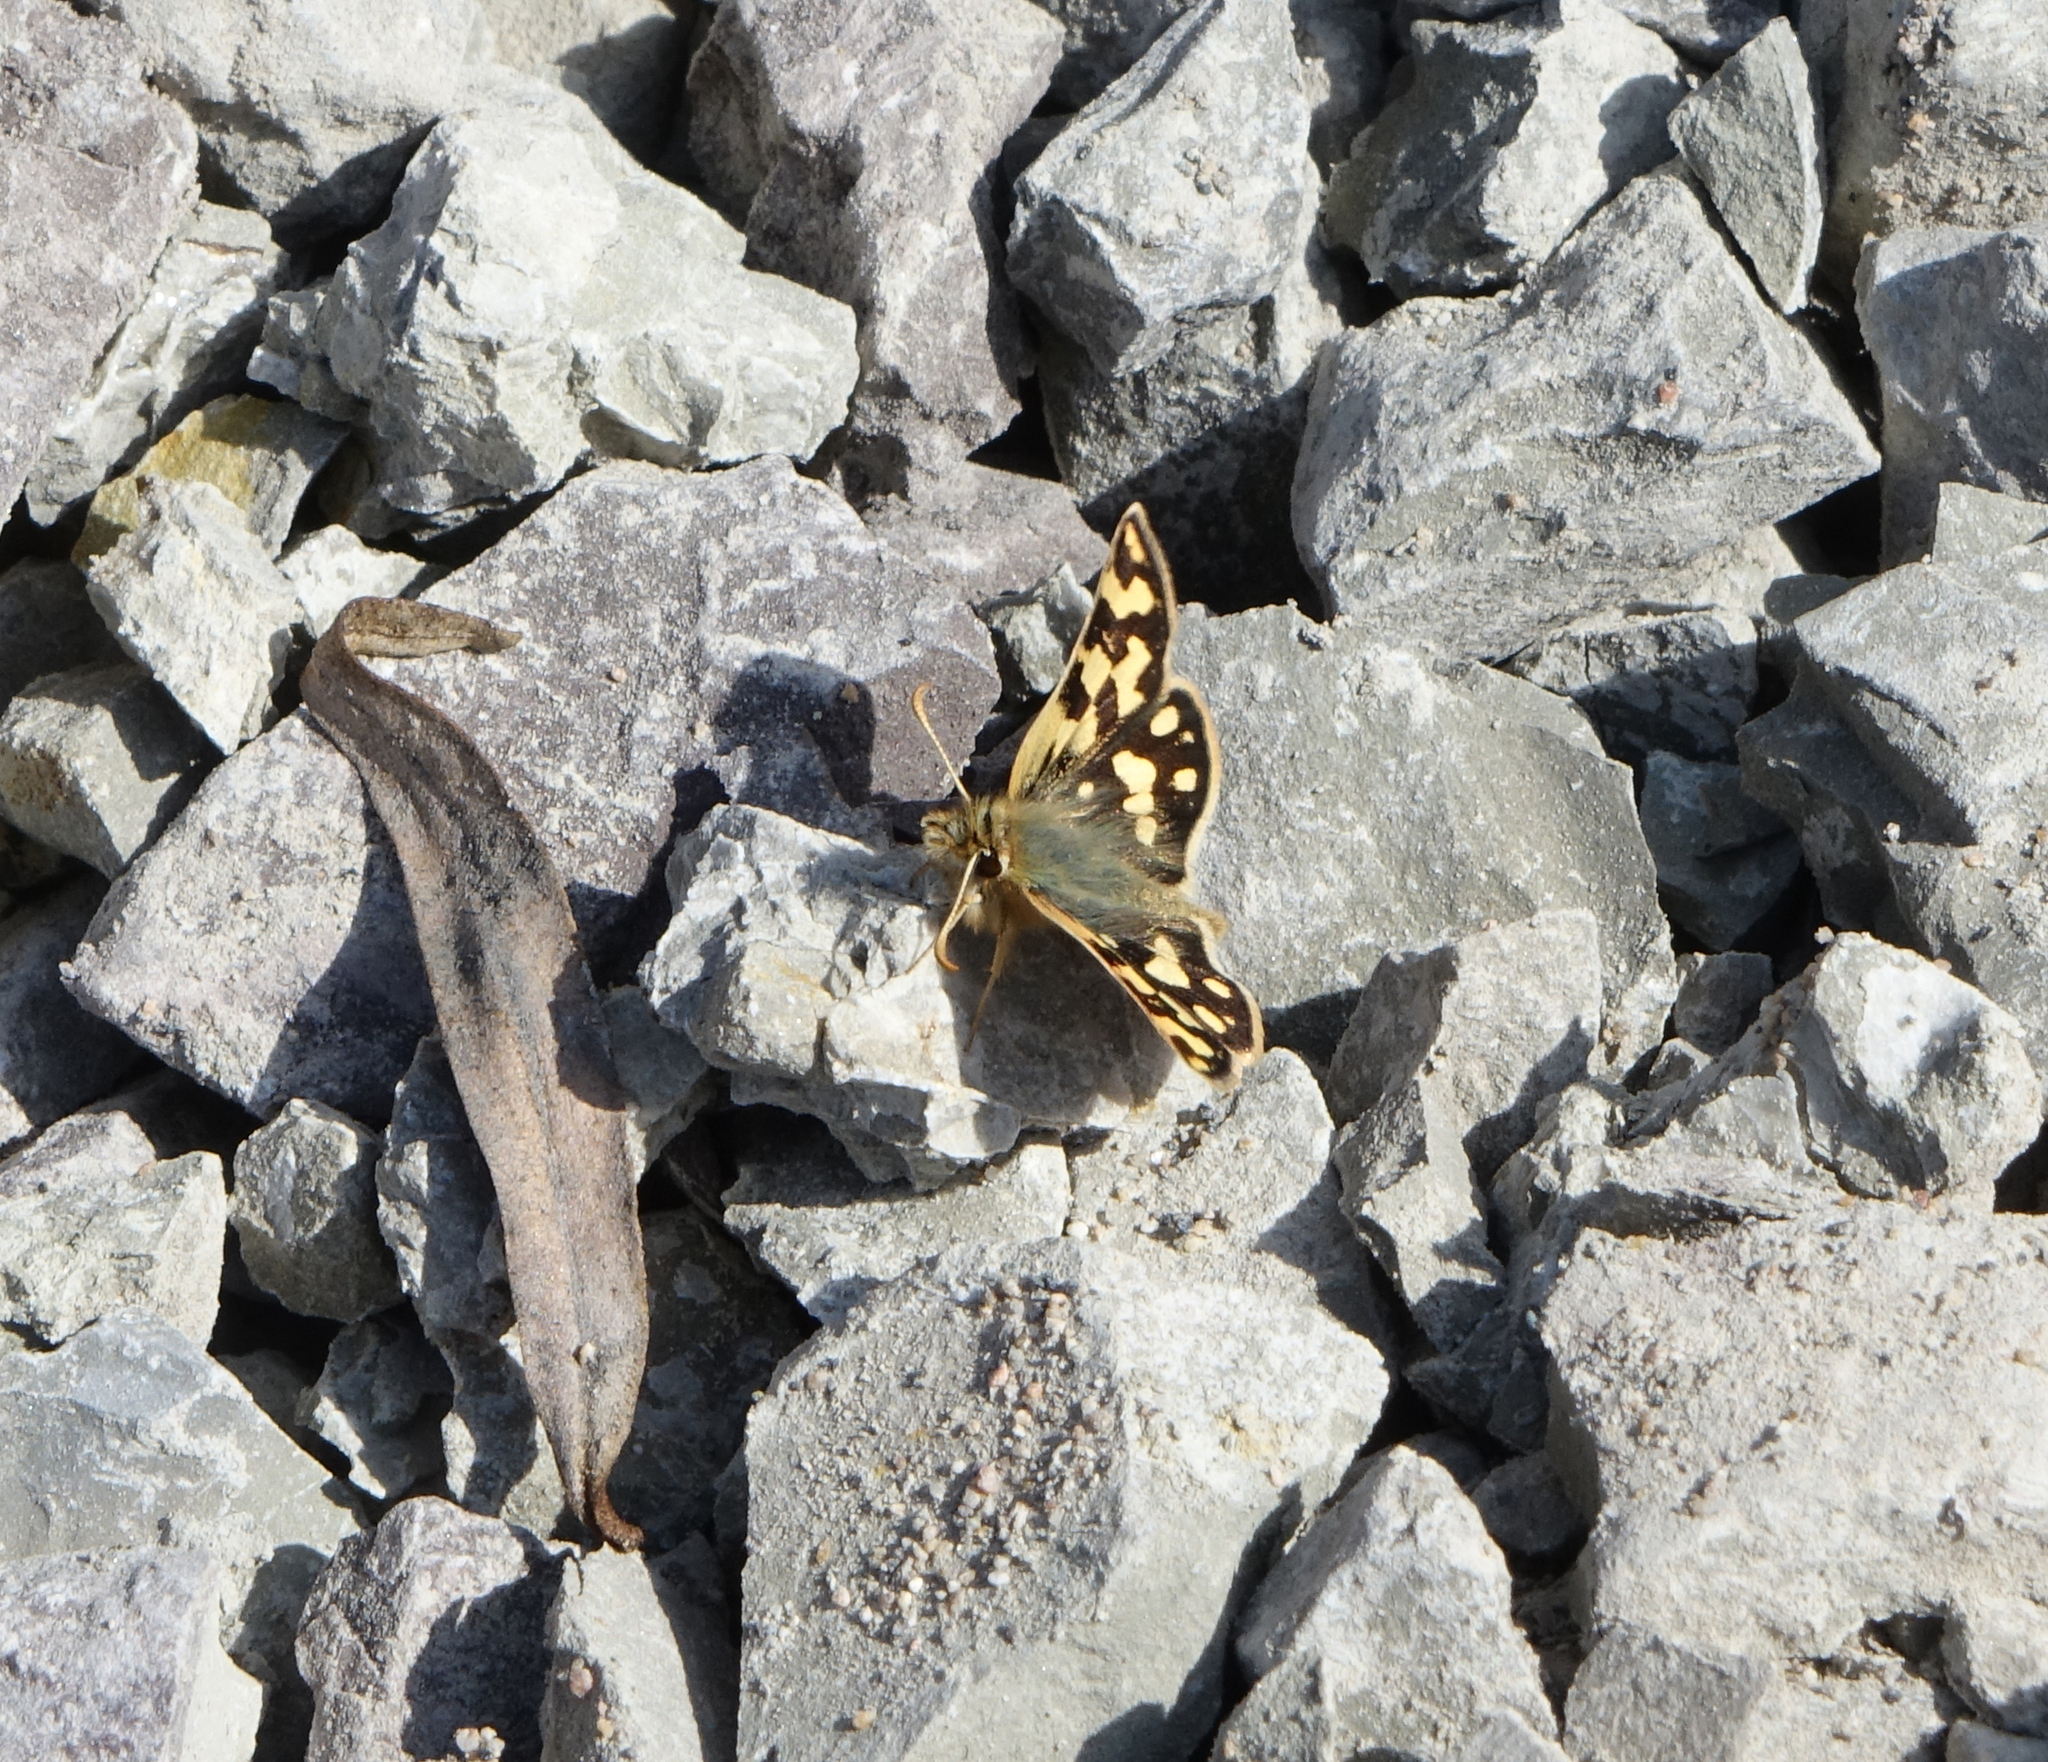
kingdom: Animalia
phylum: Arthropoda
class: Insecta
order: Lepidoptera
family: Hesperiidae
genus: Carterocephalus
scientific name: Carterocephalus argyrostigma
